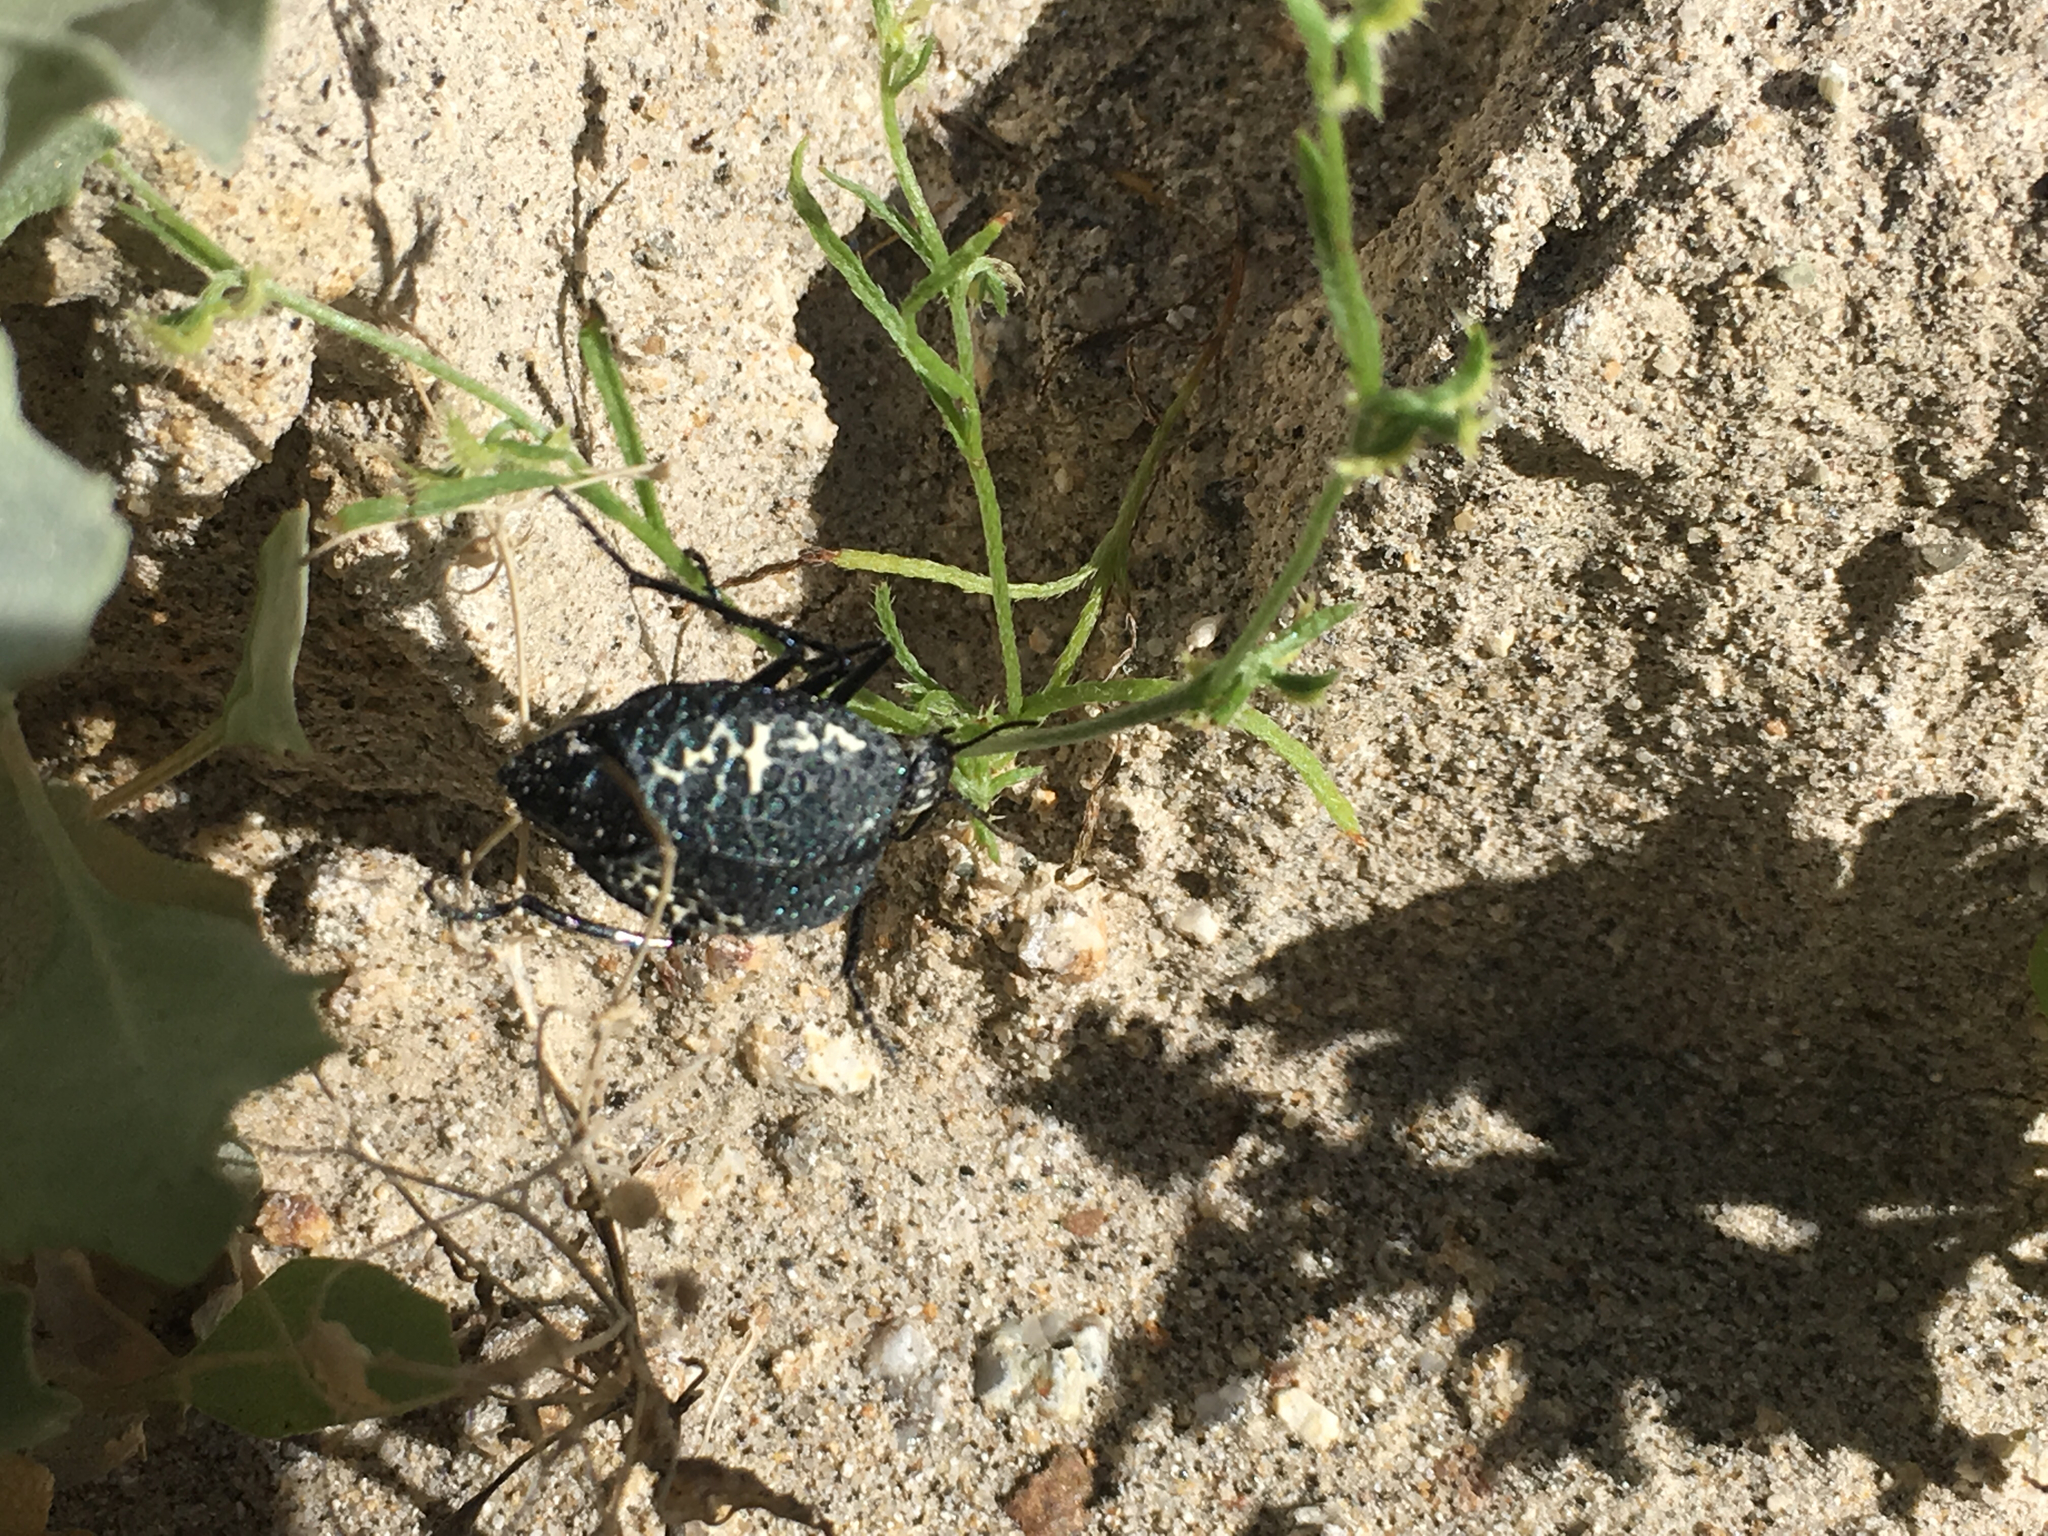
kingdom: Animalia
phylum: Arthropoda
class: Insecta
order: Coleoptera
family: Meloidae
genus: Cysteodemus
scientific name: Cysteodemus armatus
